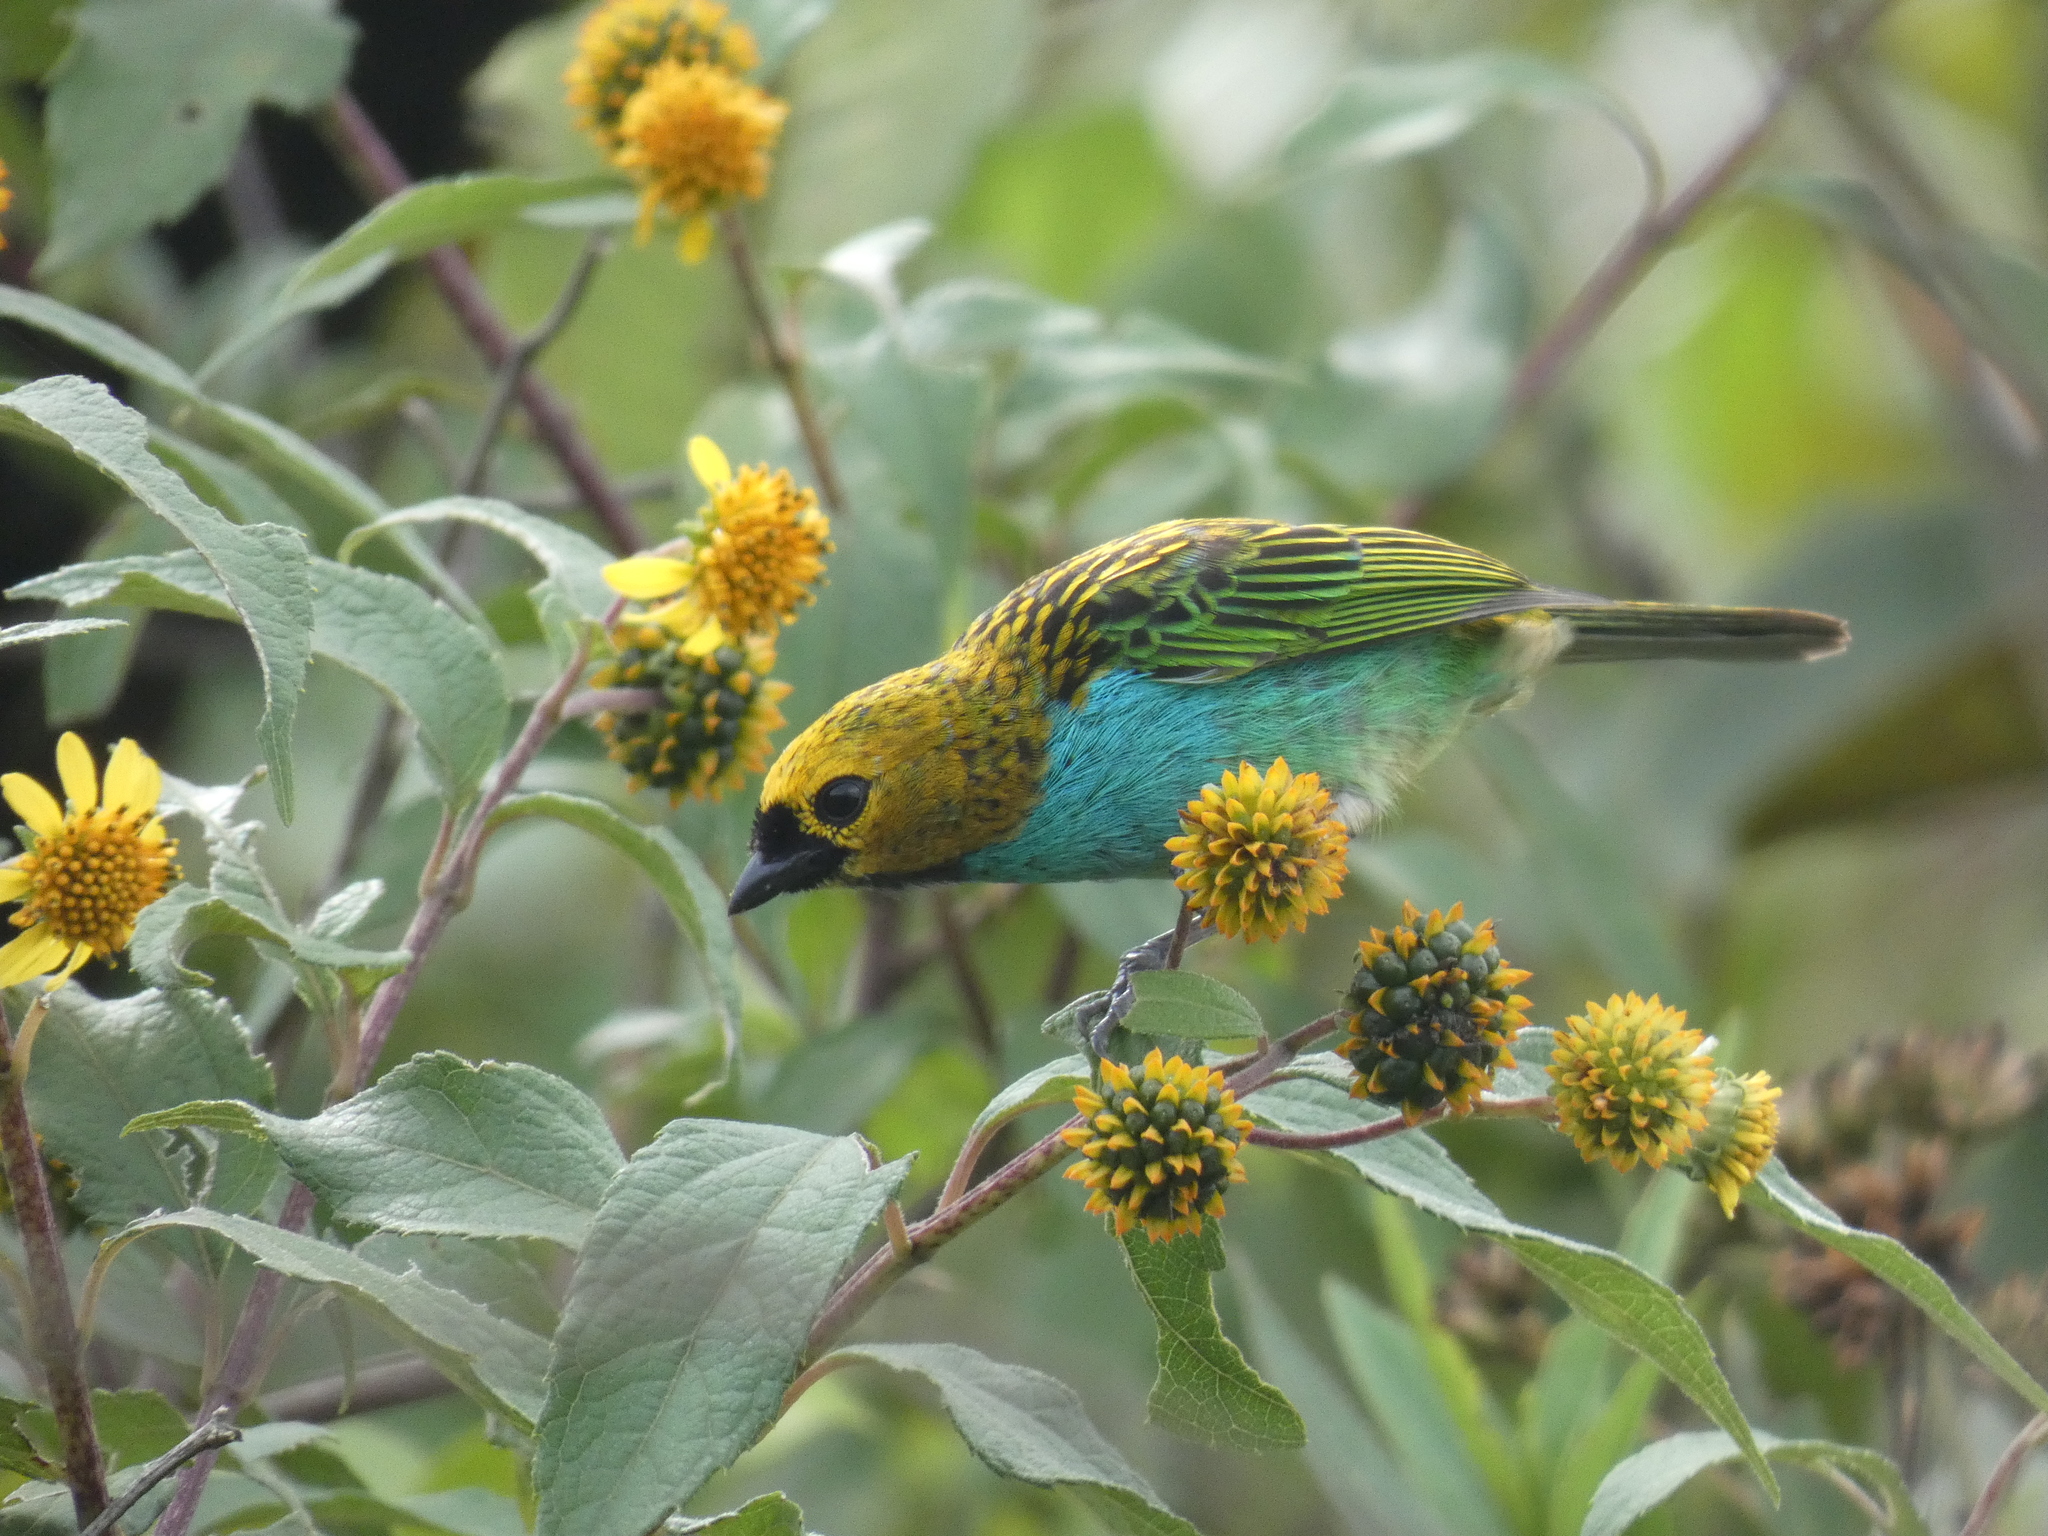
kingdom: Animalia
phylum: Chordata
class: Aves
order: Passeriformes
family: Thraupidae
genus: Tangara
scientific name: Tangara cyanoventris
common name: Gilt-edged tanager
